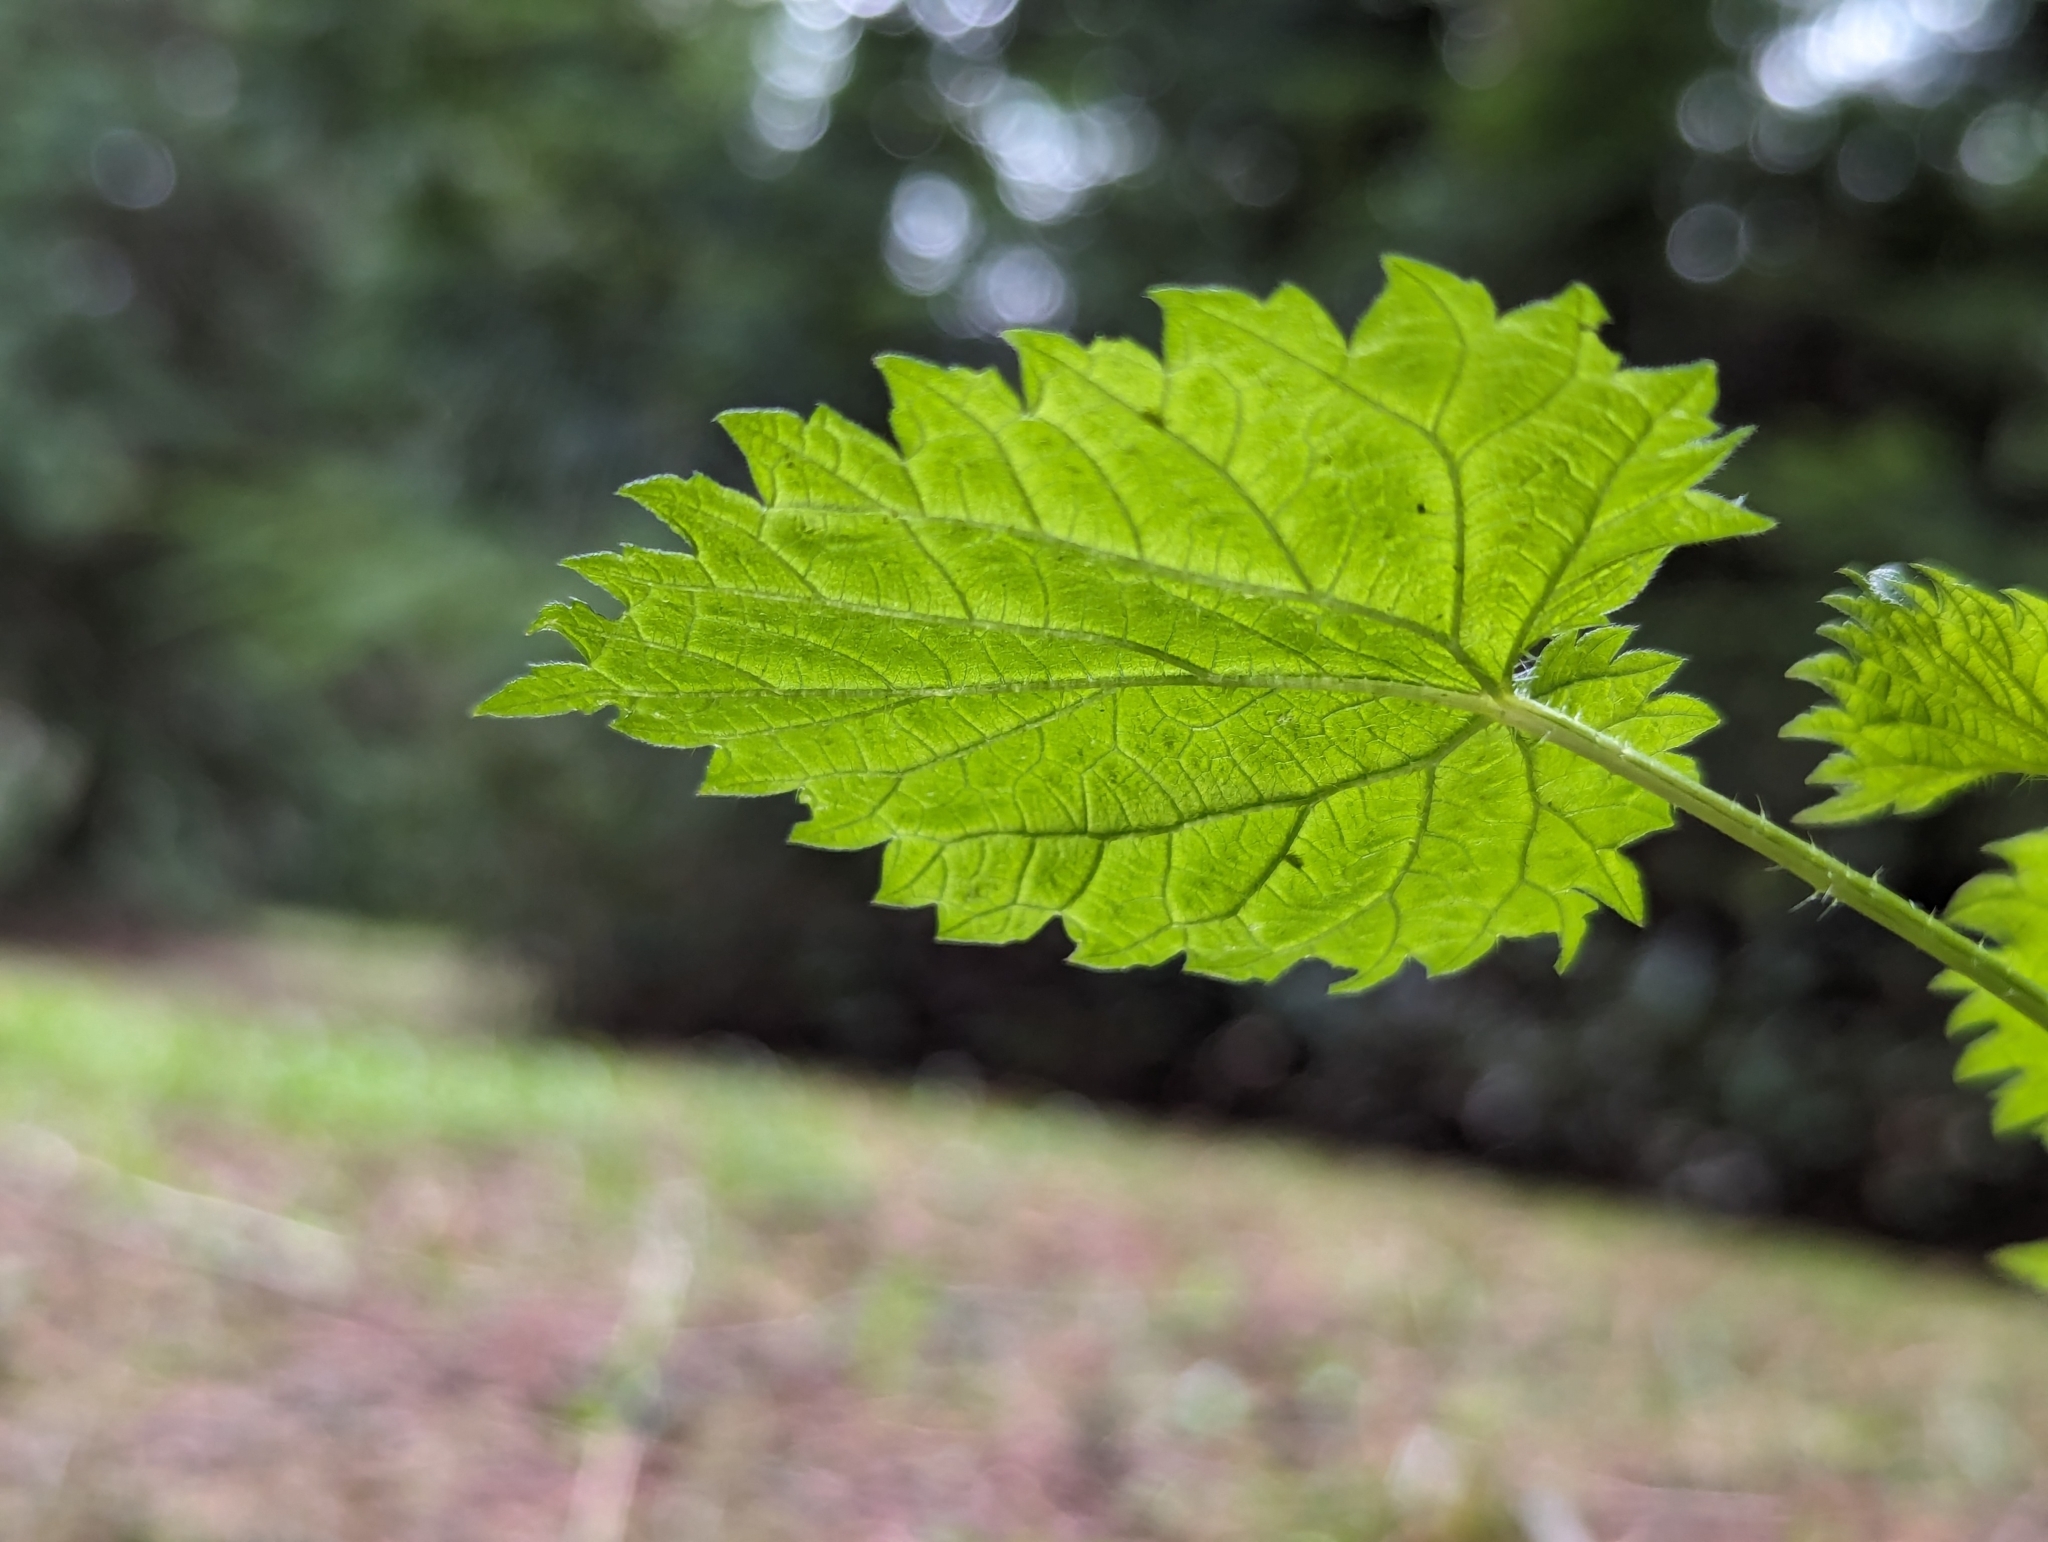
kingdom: Plantae
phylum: Tracheophyta
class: Magnoliopsida
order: Rosales
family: Urticaceae
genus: Urtica
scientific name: Urtica gracilis
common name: Slender stinging nettle
